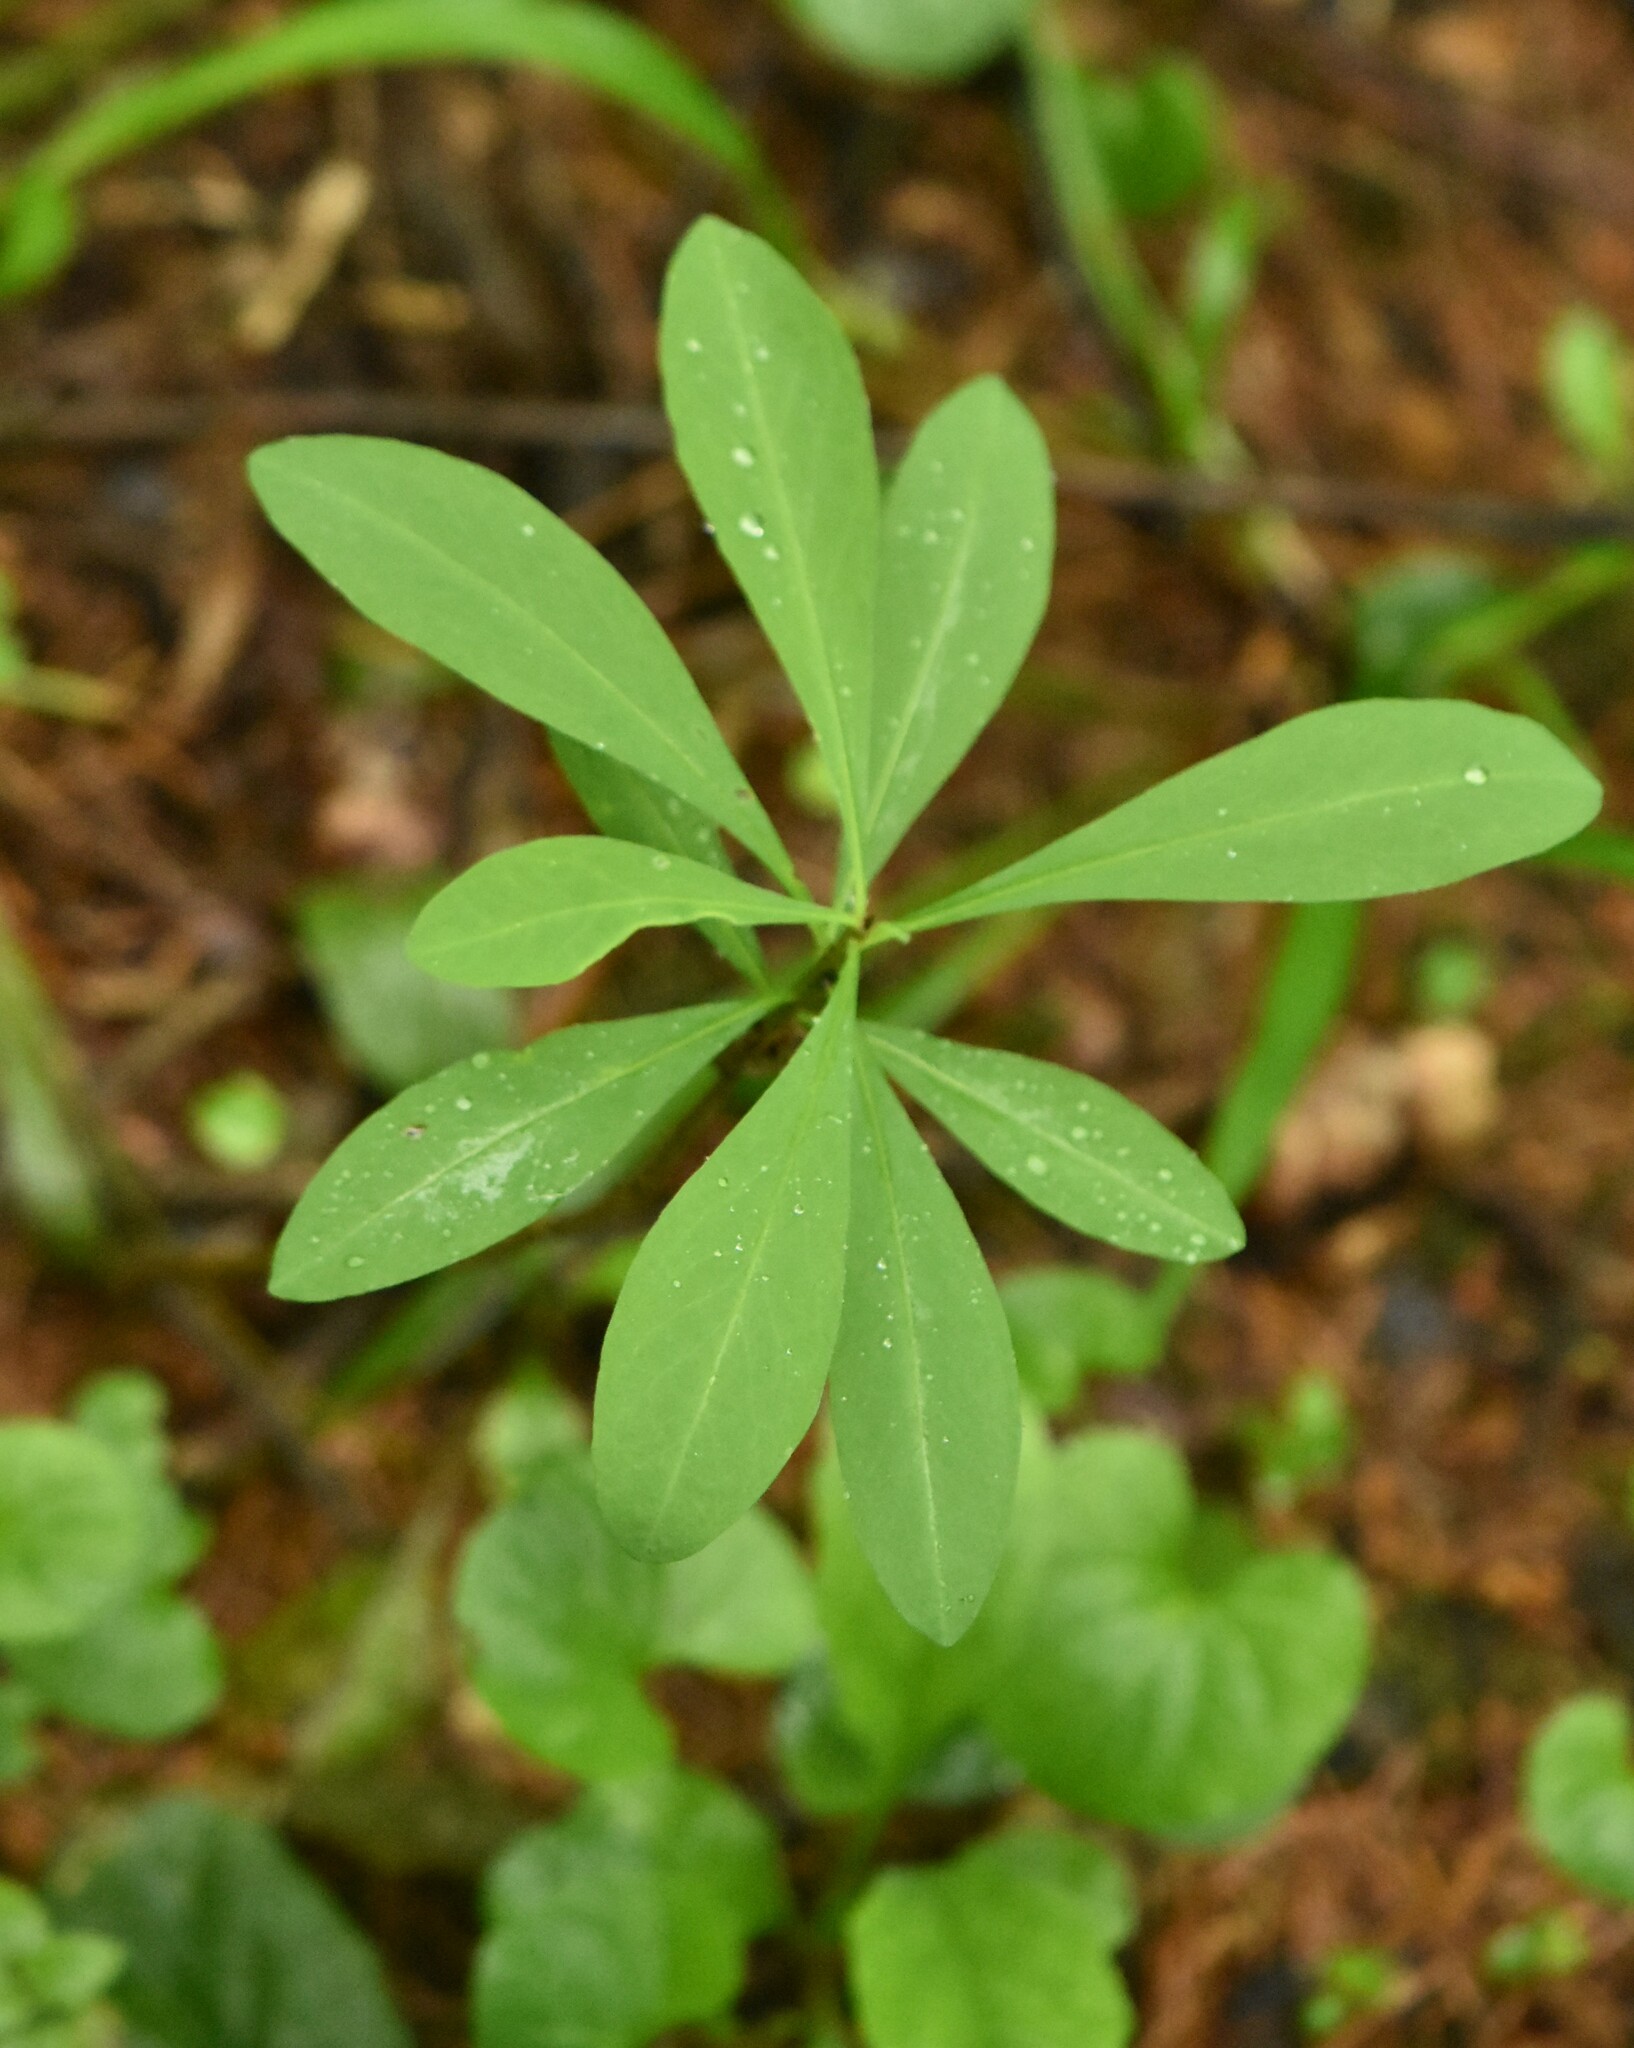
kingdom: Plantae
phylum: Tracheophyta
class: Magnoliopsida
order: Malvales
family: Thymelaeaceae
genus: Daphne
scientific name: Daphne mezereum
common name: Mezereon
